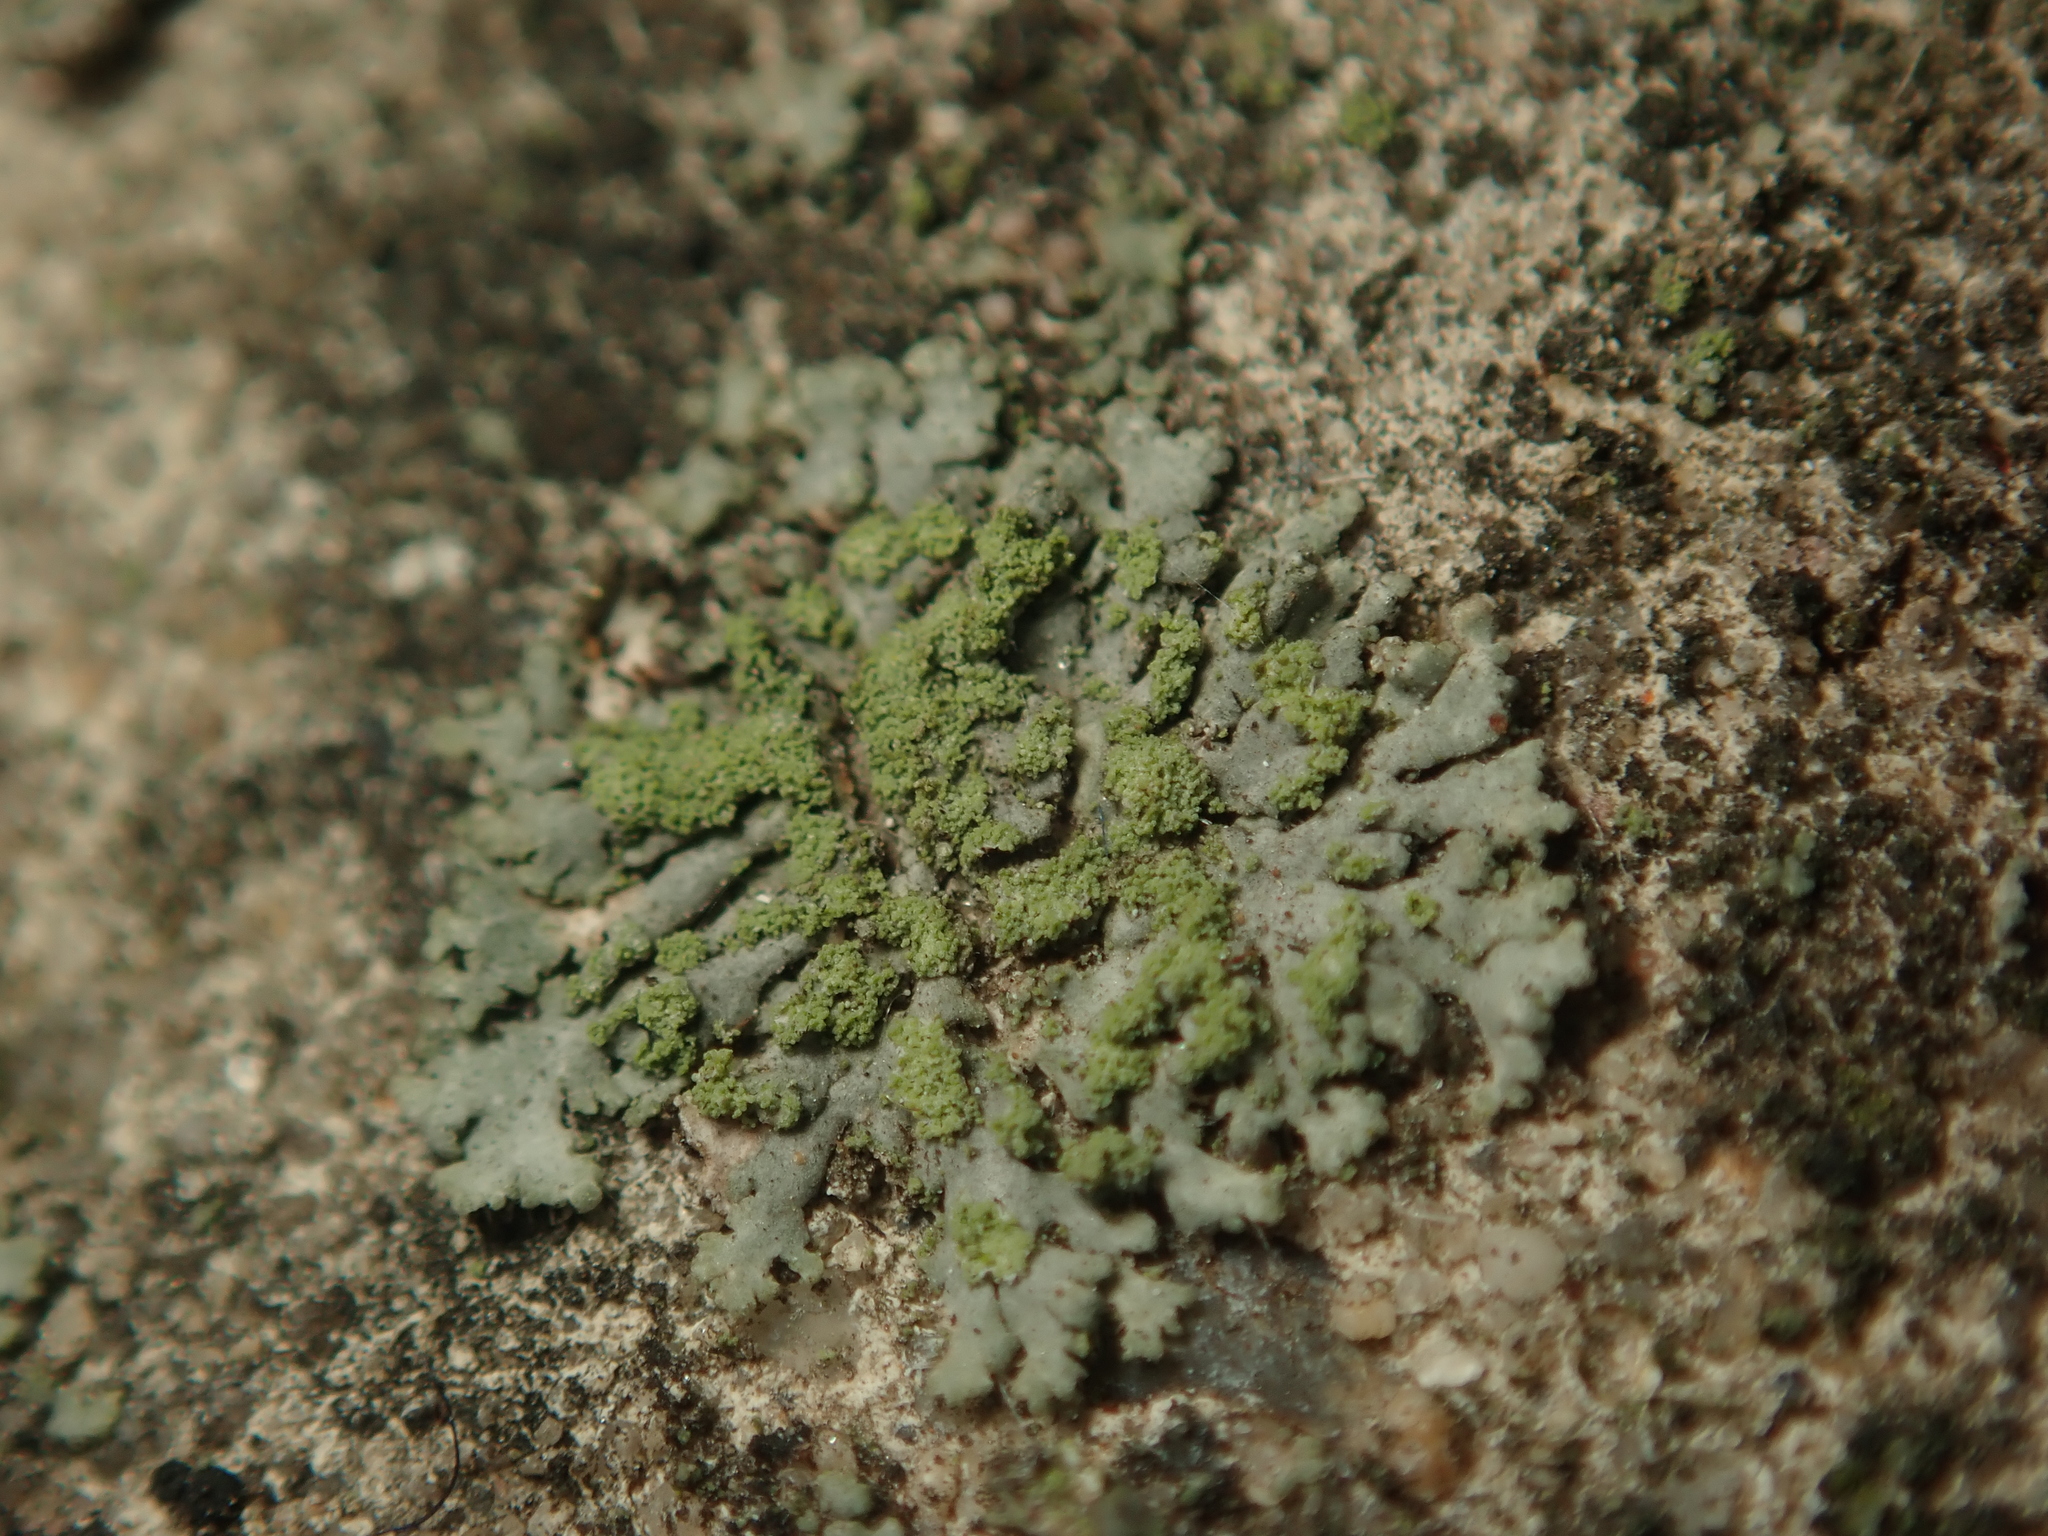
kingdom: Fungi
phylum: Ascomycota
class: Lecanoromycetes
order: Caliciales
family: Physciaceae
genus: Phaeophyscia
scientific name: Phaeophyscia orbicularis
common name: Mealy shadow lichen
